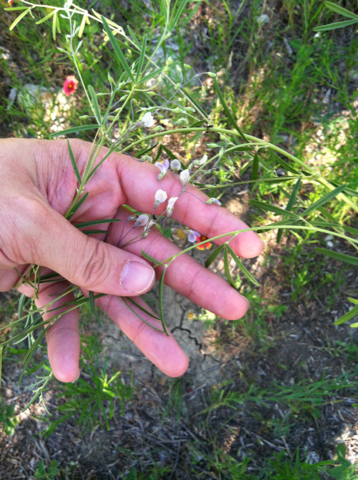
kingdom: Plantae
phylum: Tracheophyta
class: Magnoliopsida
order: Fabales
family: Fabaceae
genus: Pediomelum
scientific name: Pediomelum linearifolium
